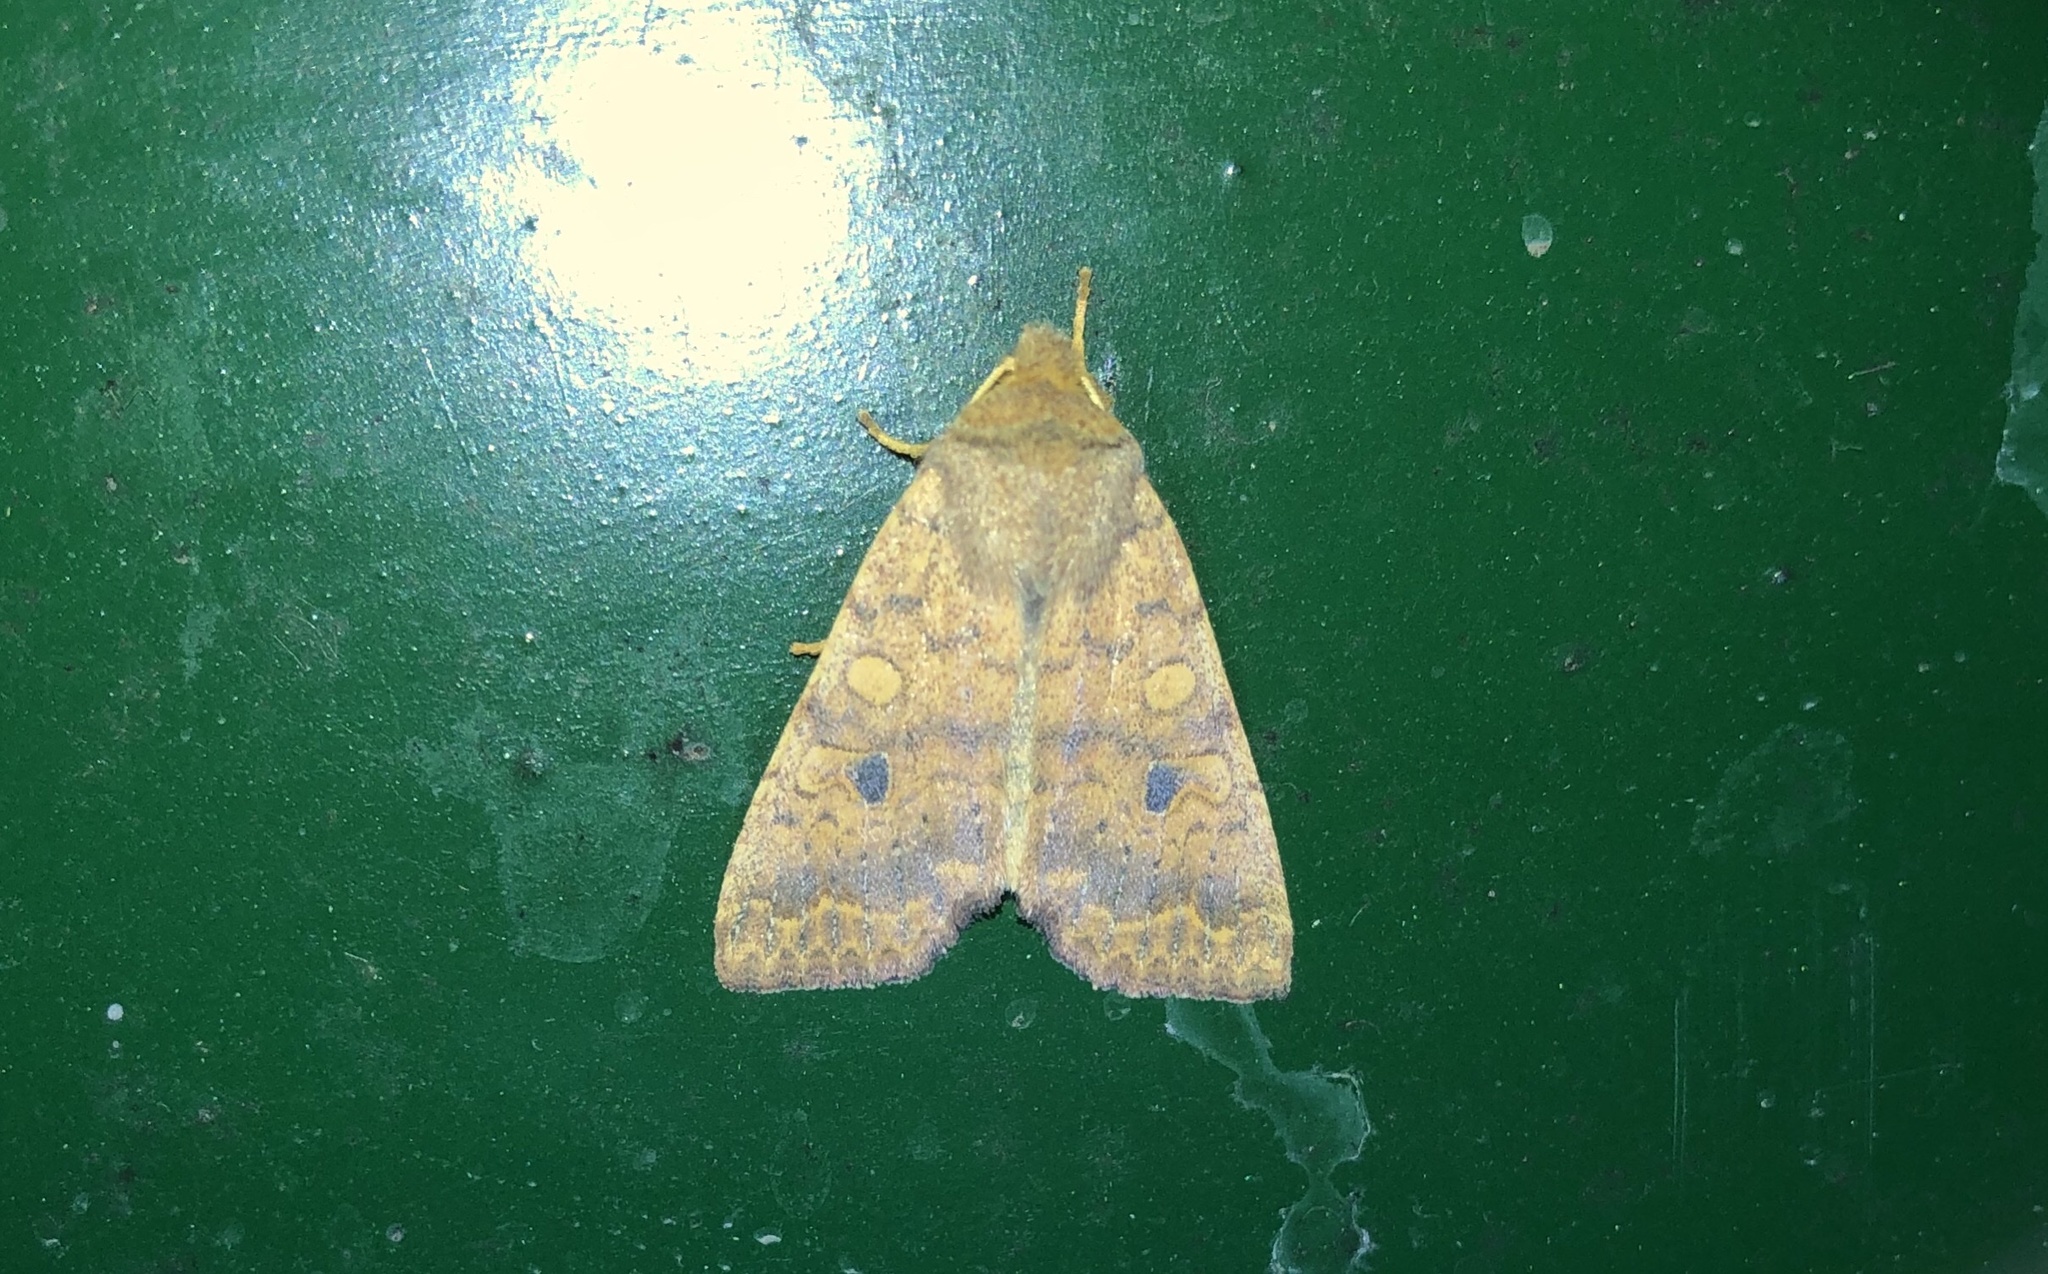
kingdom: Animalia
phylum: Arthropoda
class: Insecta
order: Lepidoptera
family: Noctuidae
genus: Agrochola
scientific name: Agrochola bicolorago
